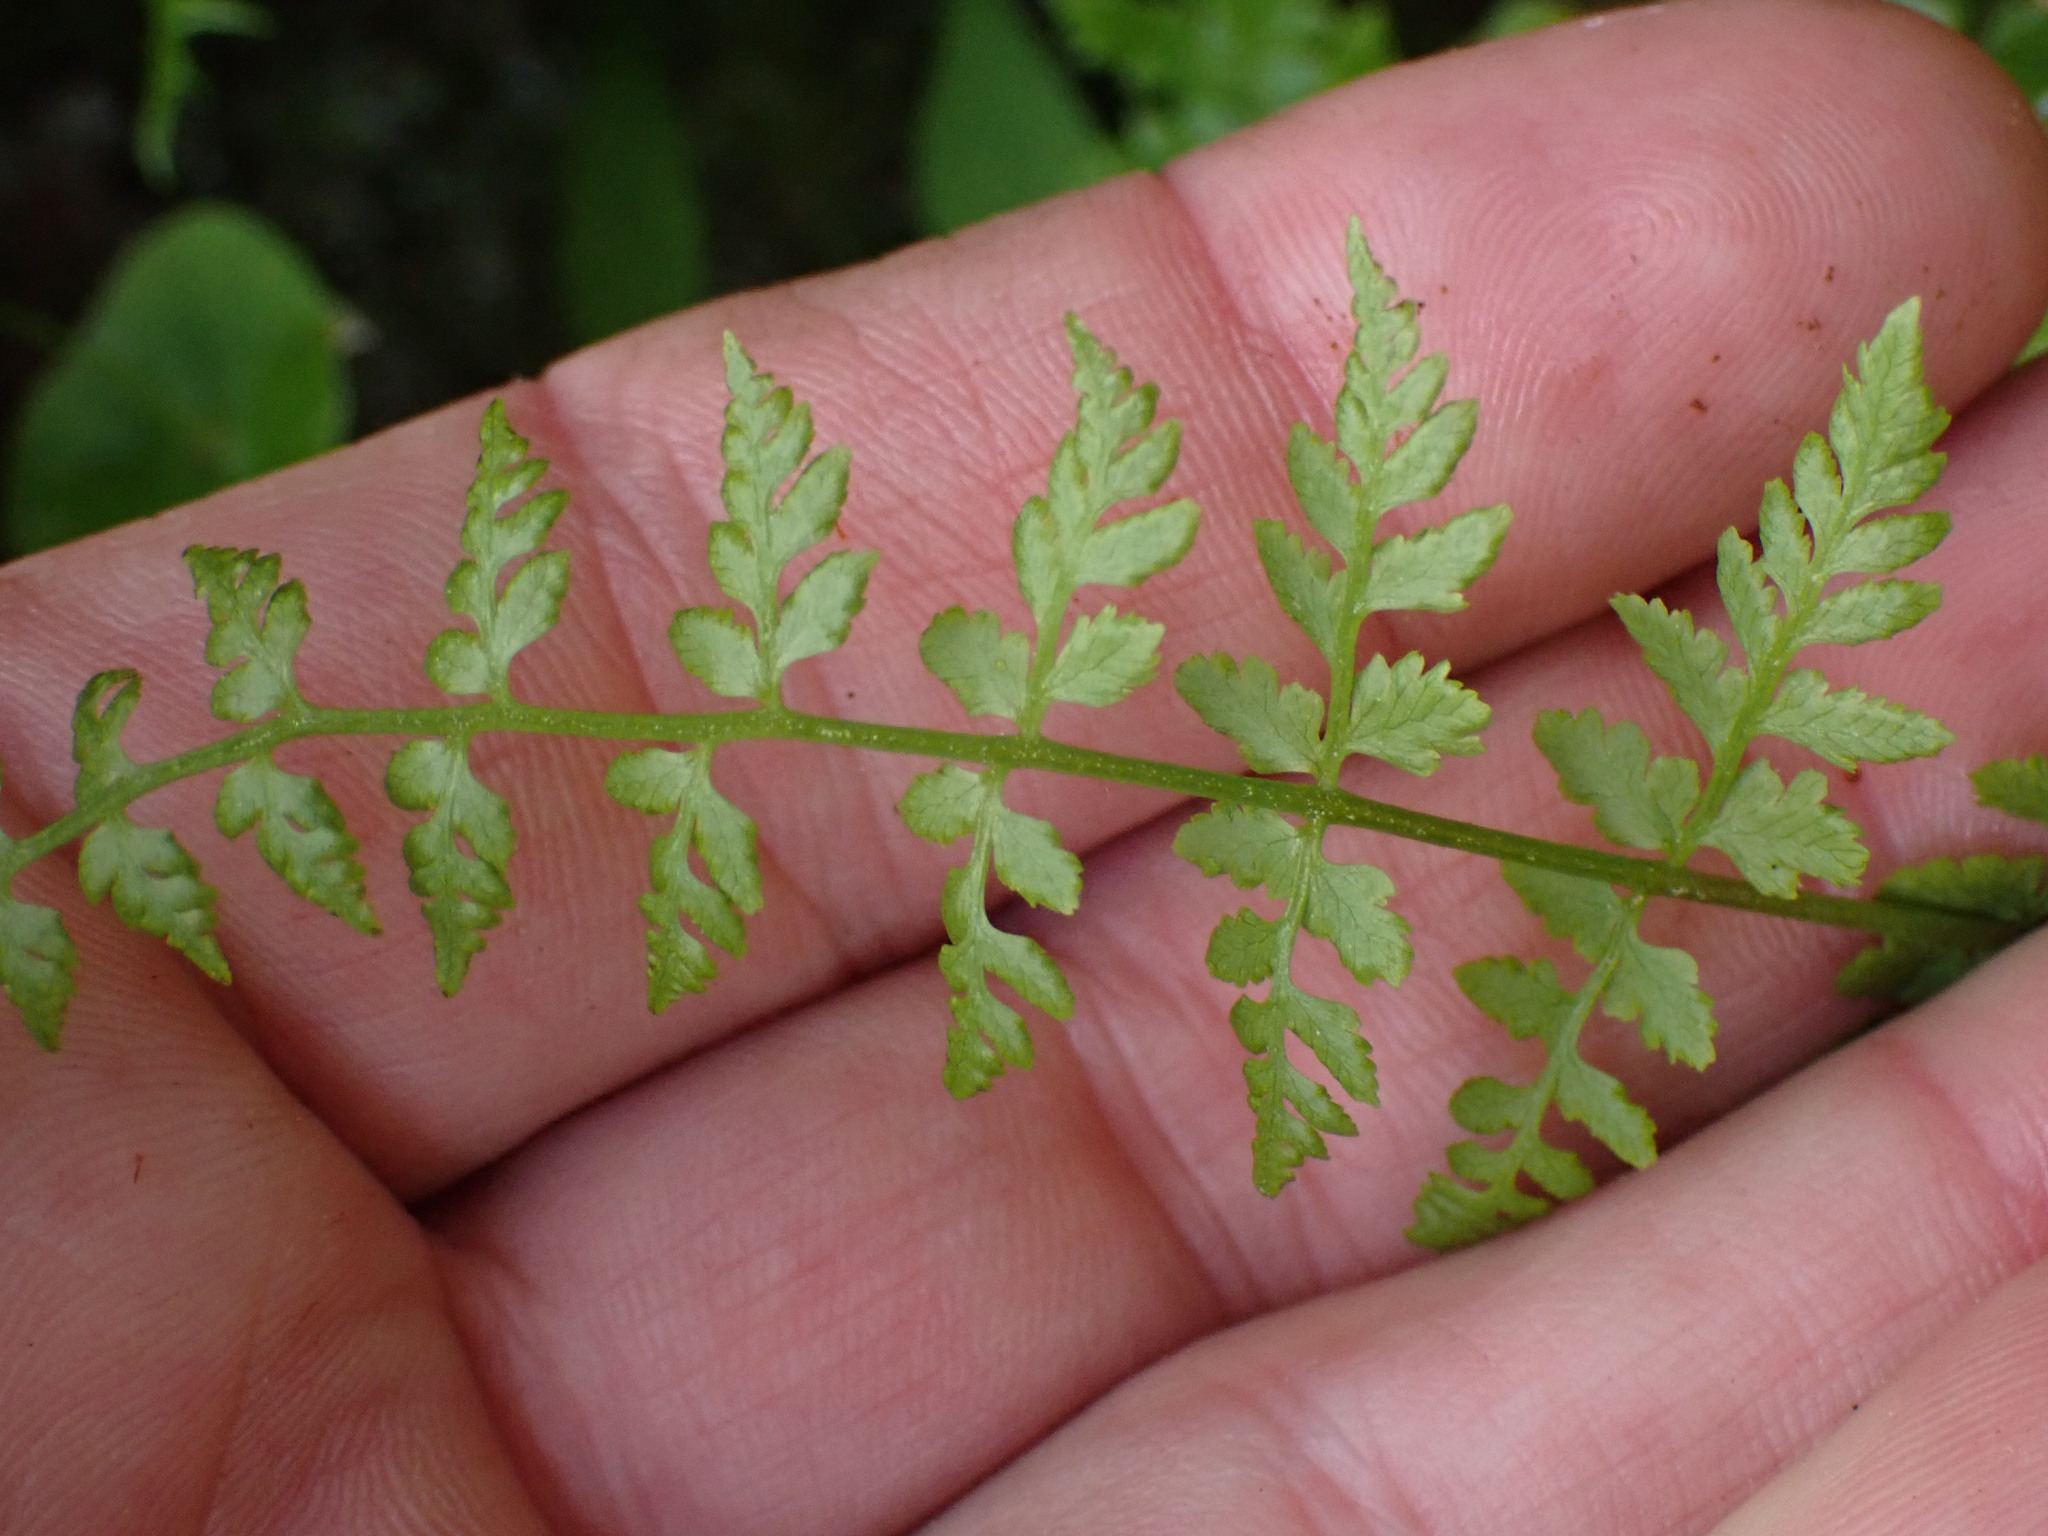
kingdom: Plantae
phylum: Tracheophyta
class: Polypodiopsida
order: Polypodiales
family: Cystopteridaceae
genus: Cystopteris
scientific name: Cystopteris fragilis
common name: Brittle bladder fern
